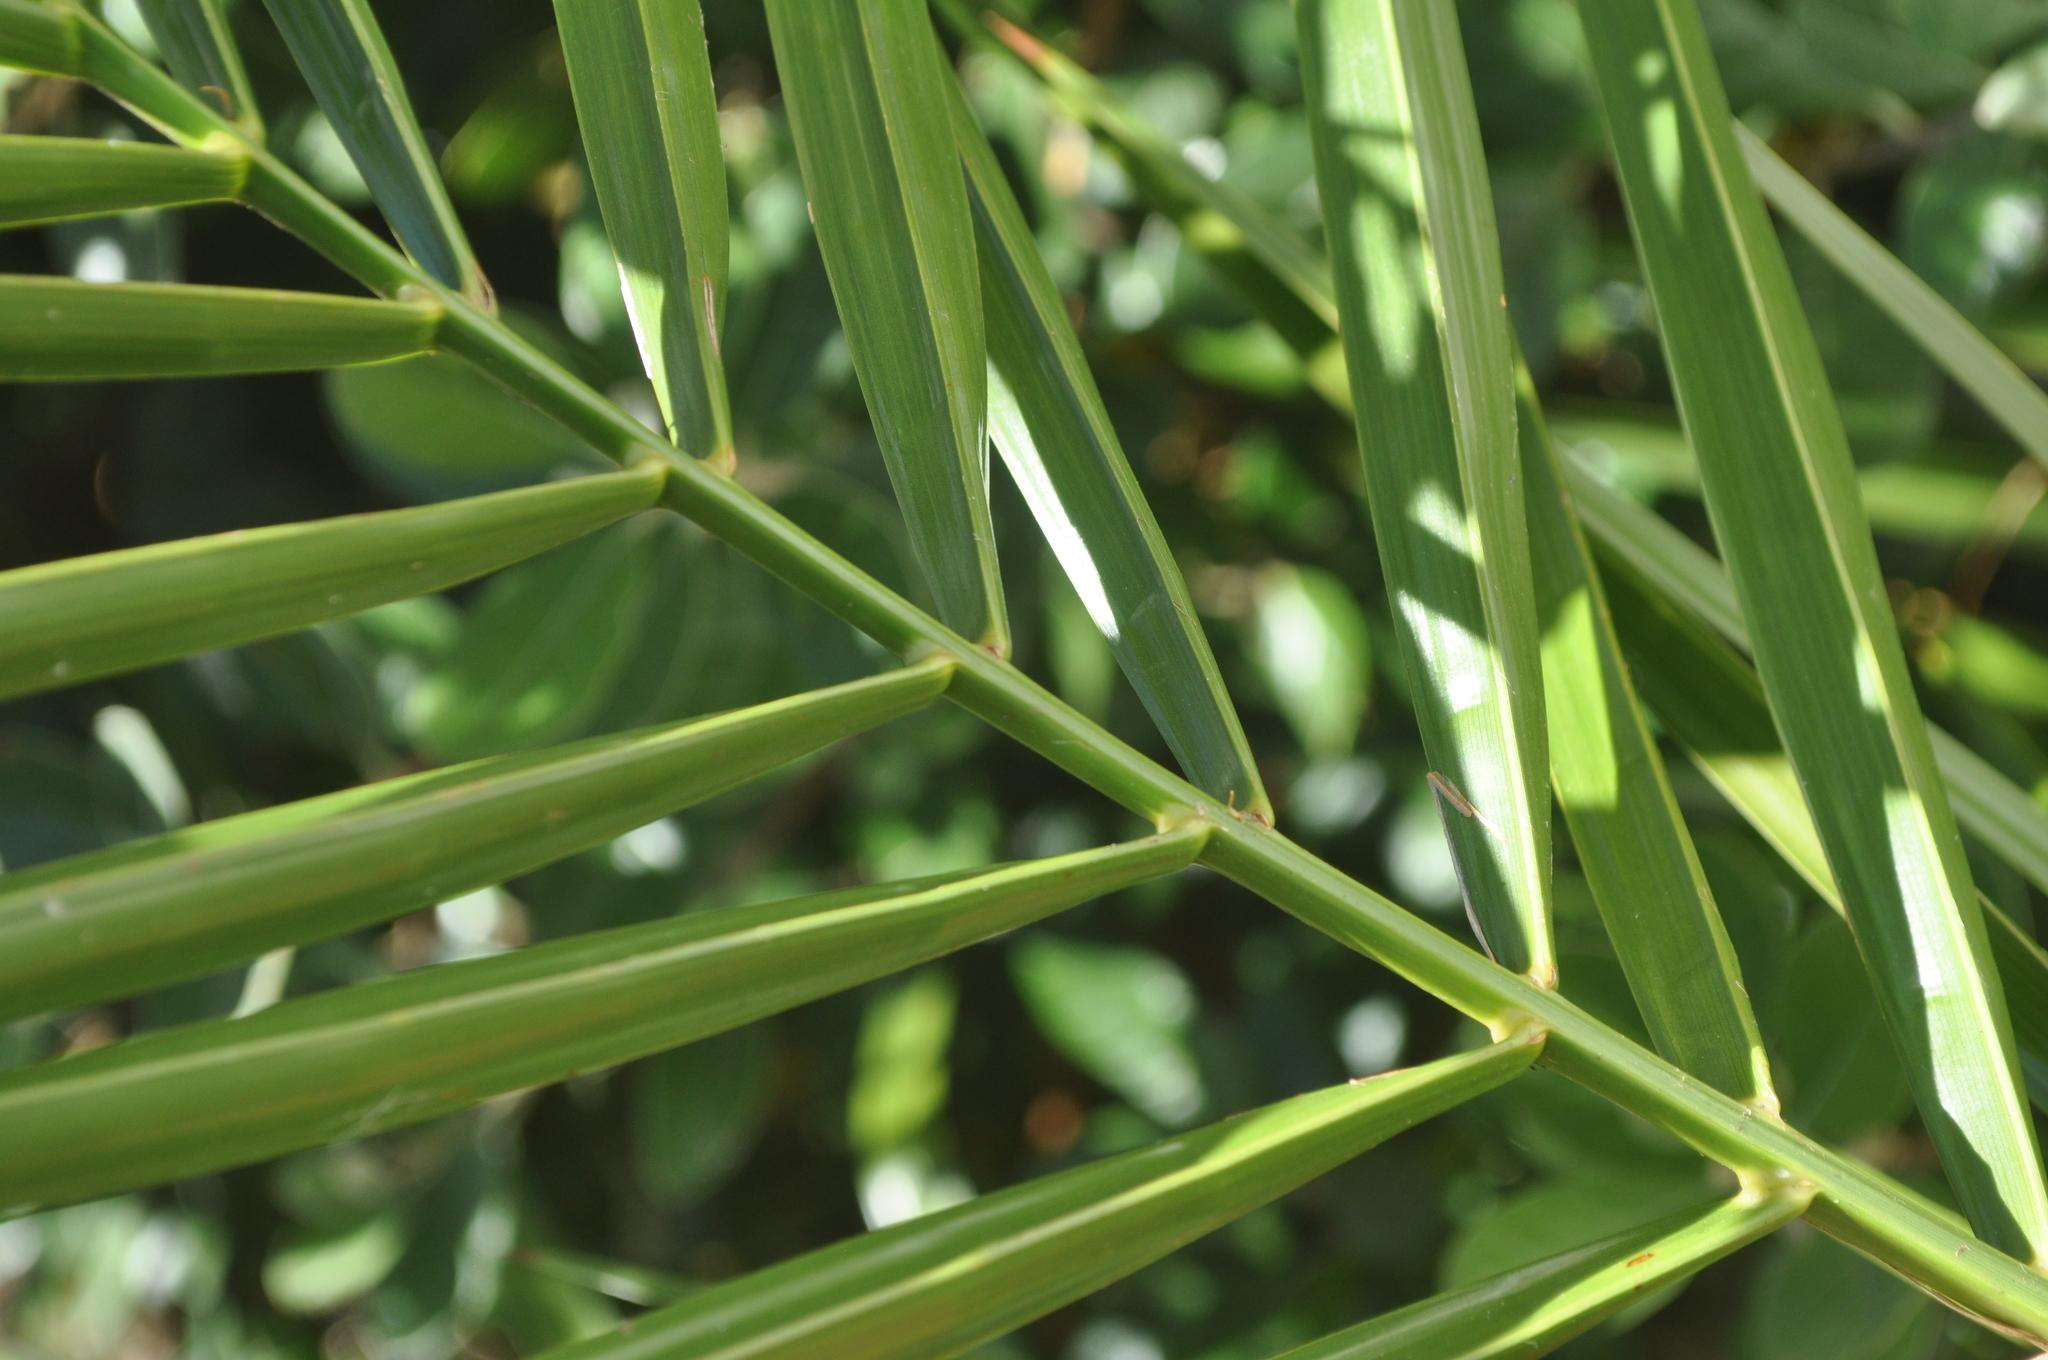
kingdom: Plantae
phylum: Tracheophyta
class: Liliopsida
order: Arecales
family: Arecaceae
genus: Phoenix
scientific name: Phoenix canariensis
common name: Canary island date palm
